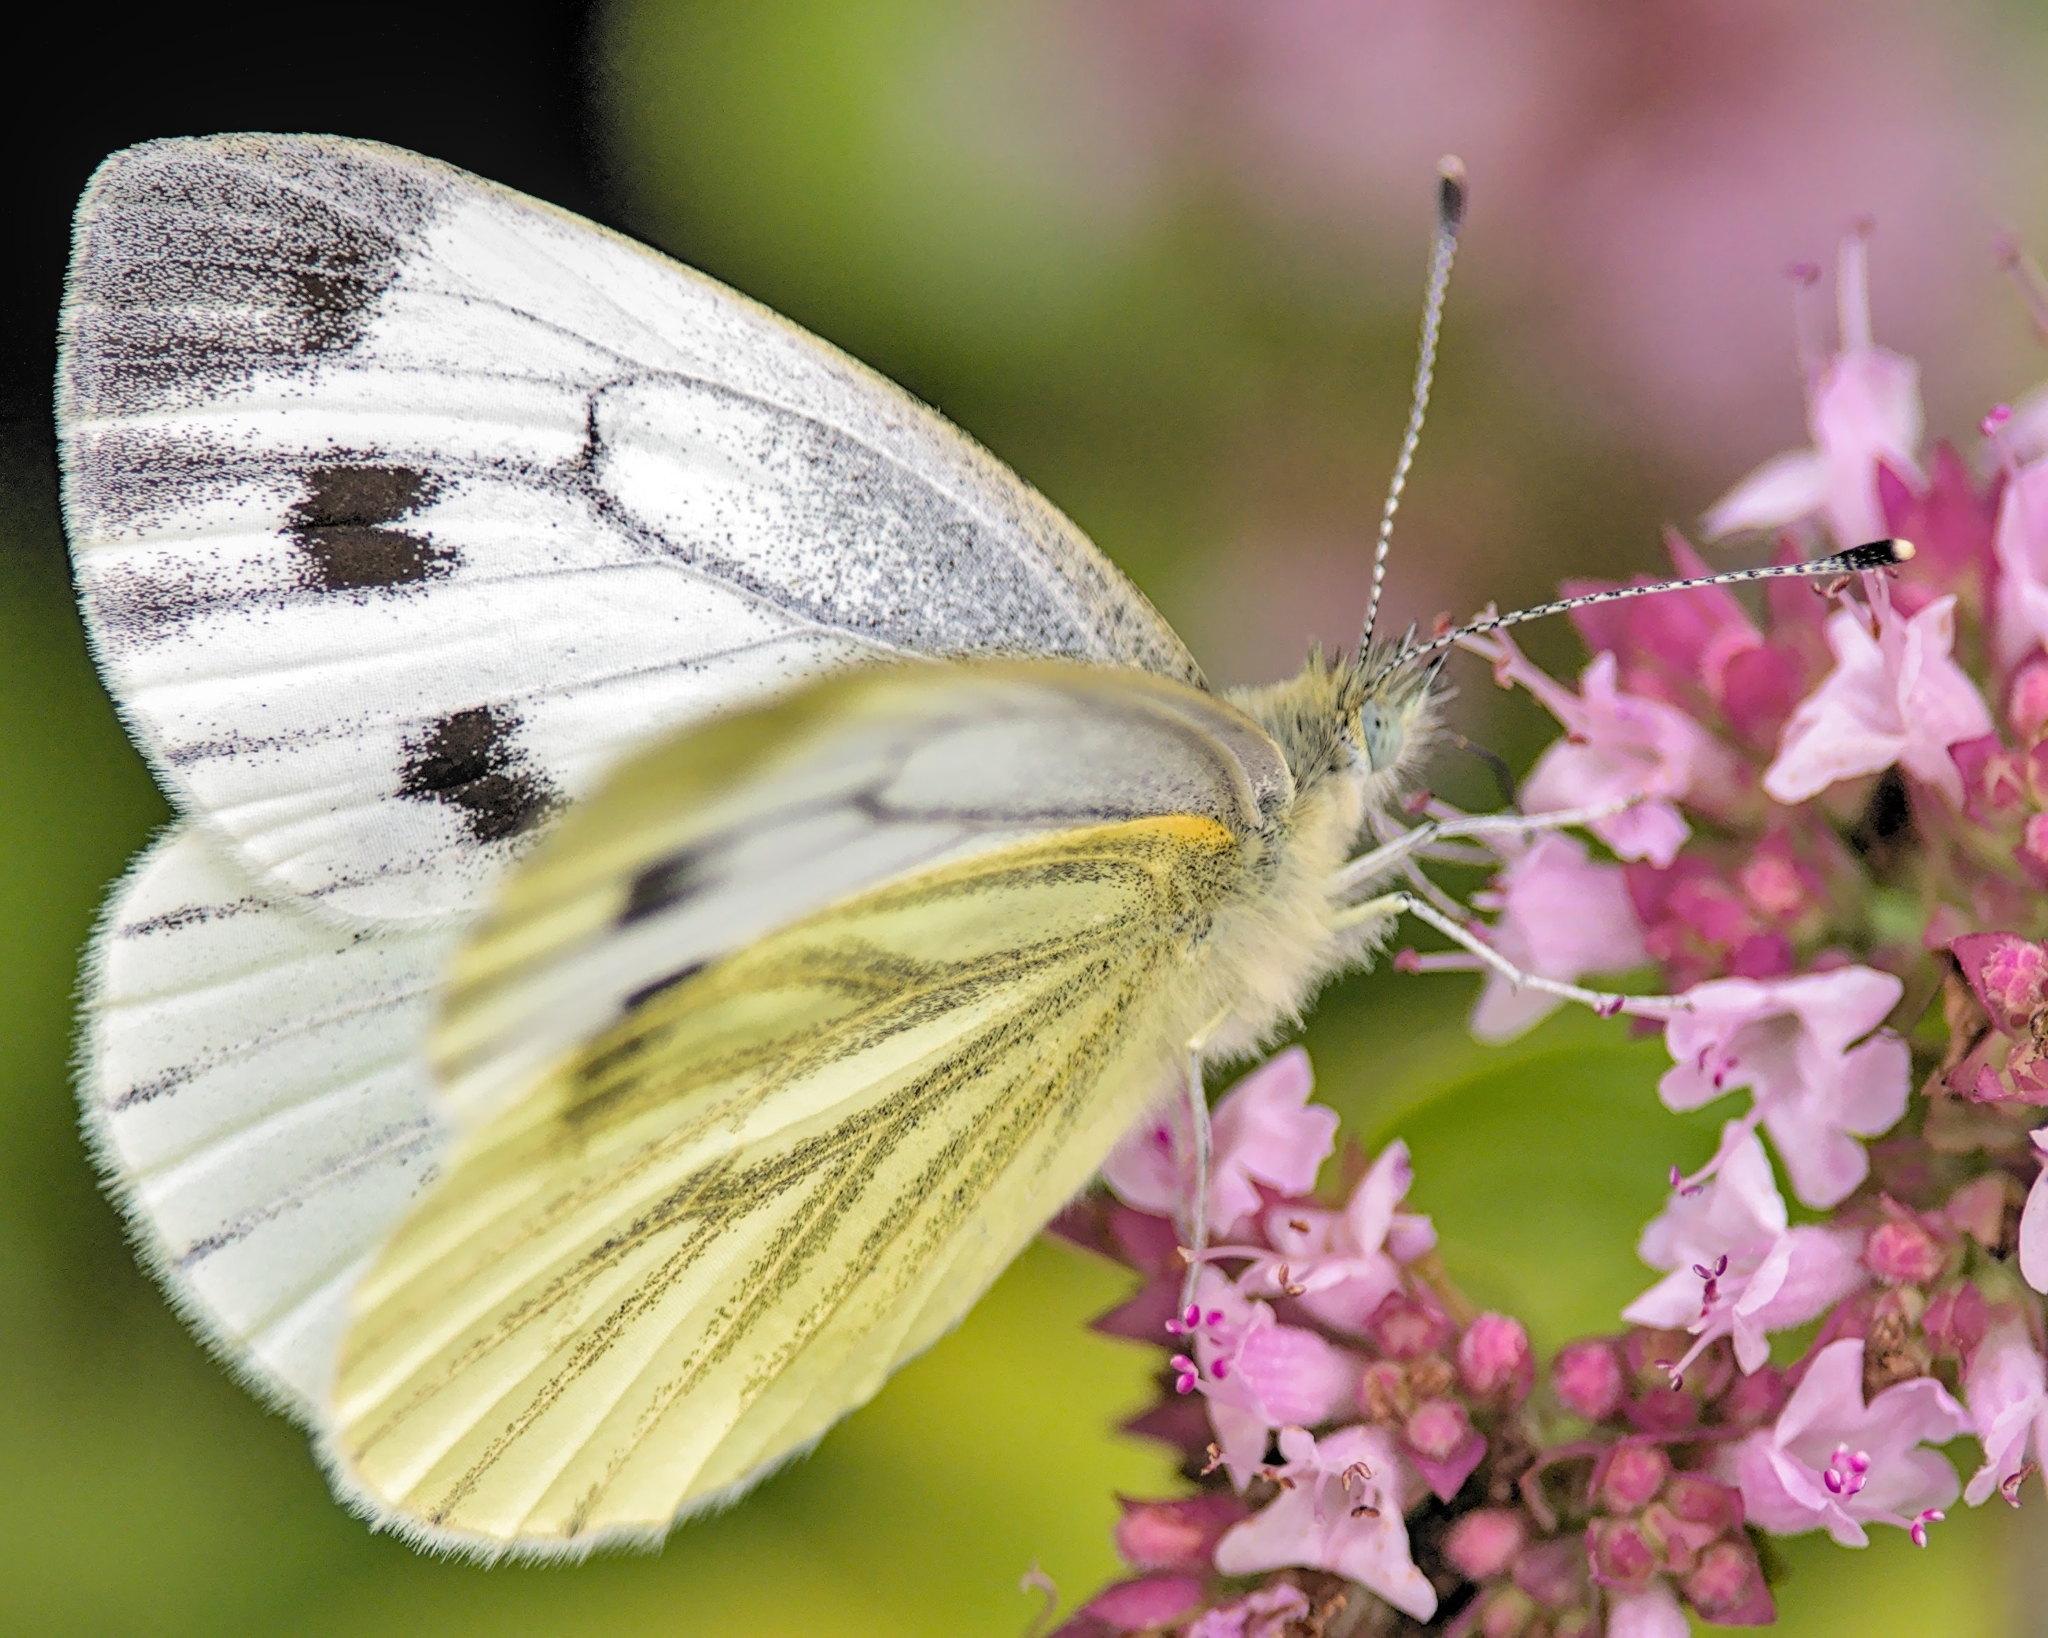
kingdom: Animalia
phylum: Arthropoda
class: Insecta
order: Lepidoptera
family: Pieridae
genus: Pieris
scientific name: Pieris napi
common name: Green-veined white
